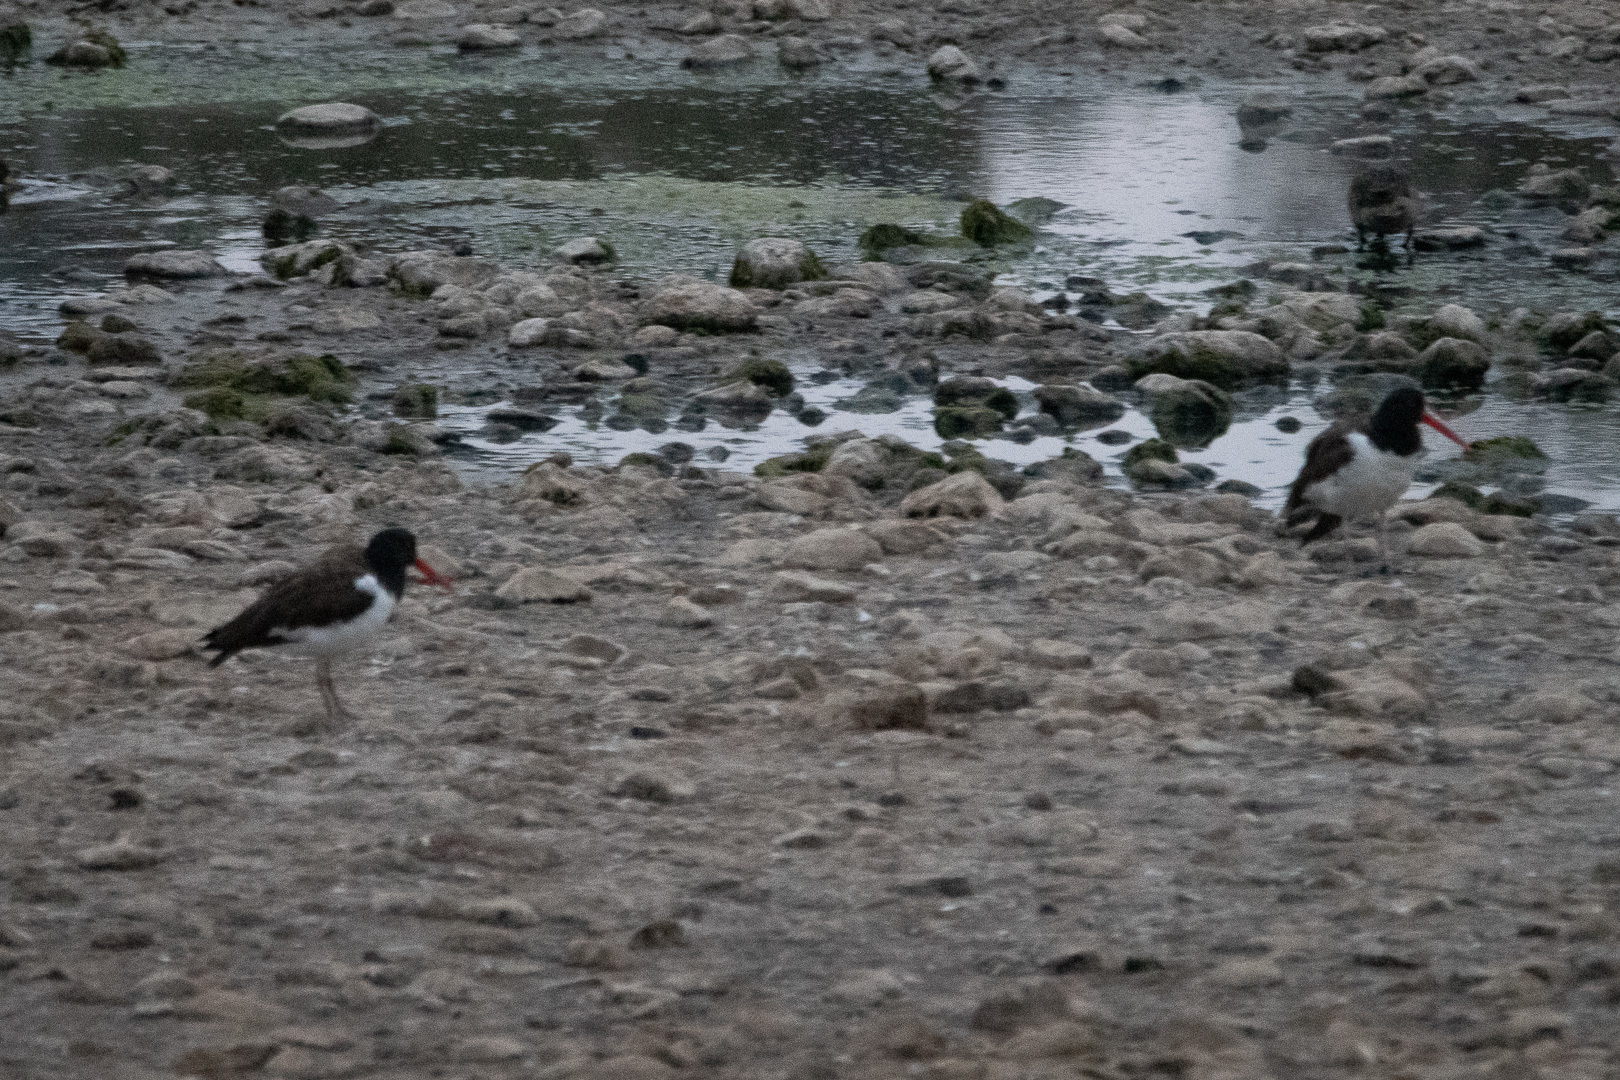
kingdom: Animalia
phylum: Chordata
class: Aves
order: Charadriiformes
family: Haematopodidae
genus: Haematopus
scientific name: Haematopus palliatus
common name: American oystercatcher
